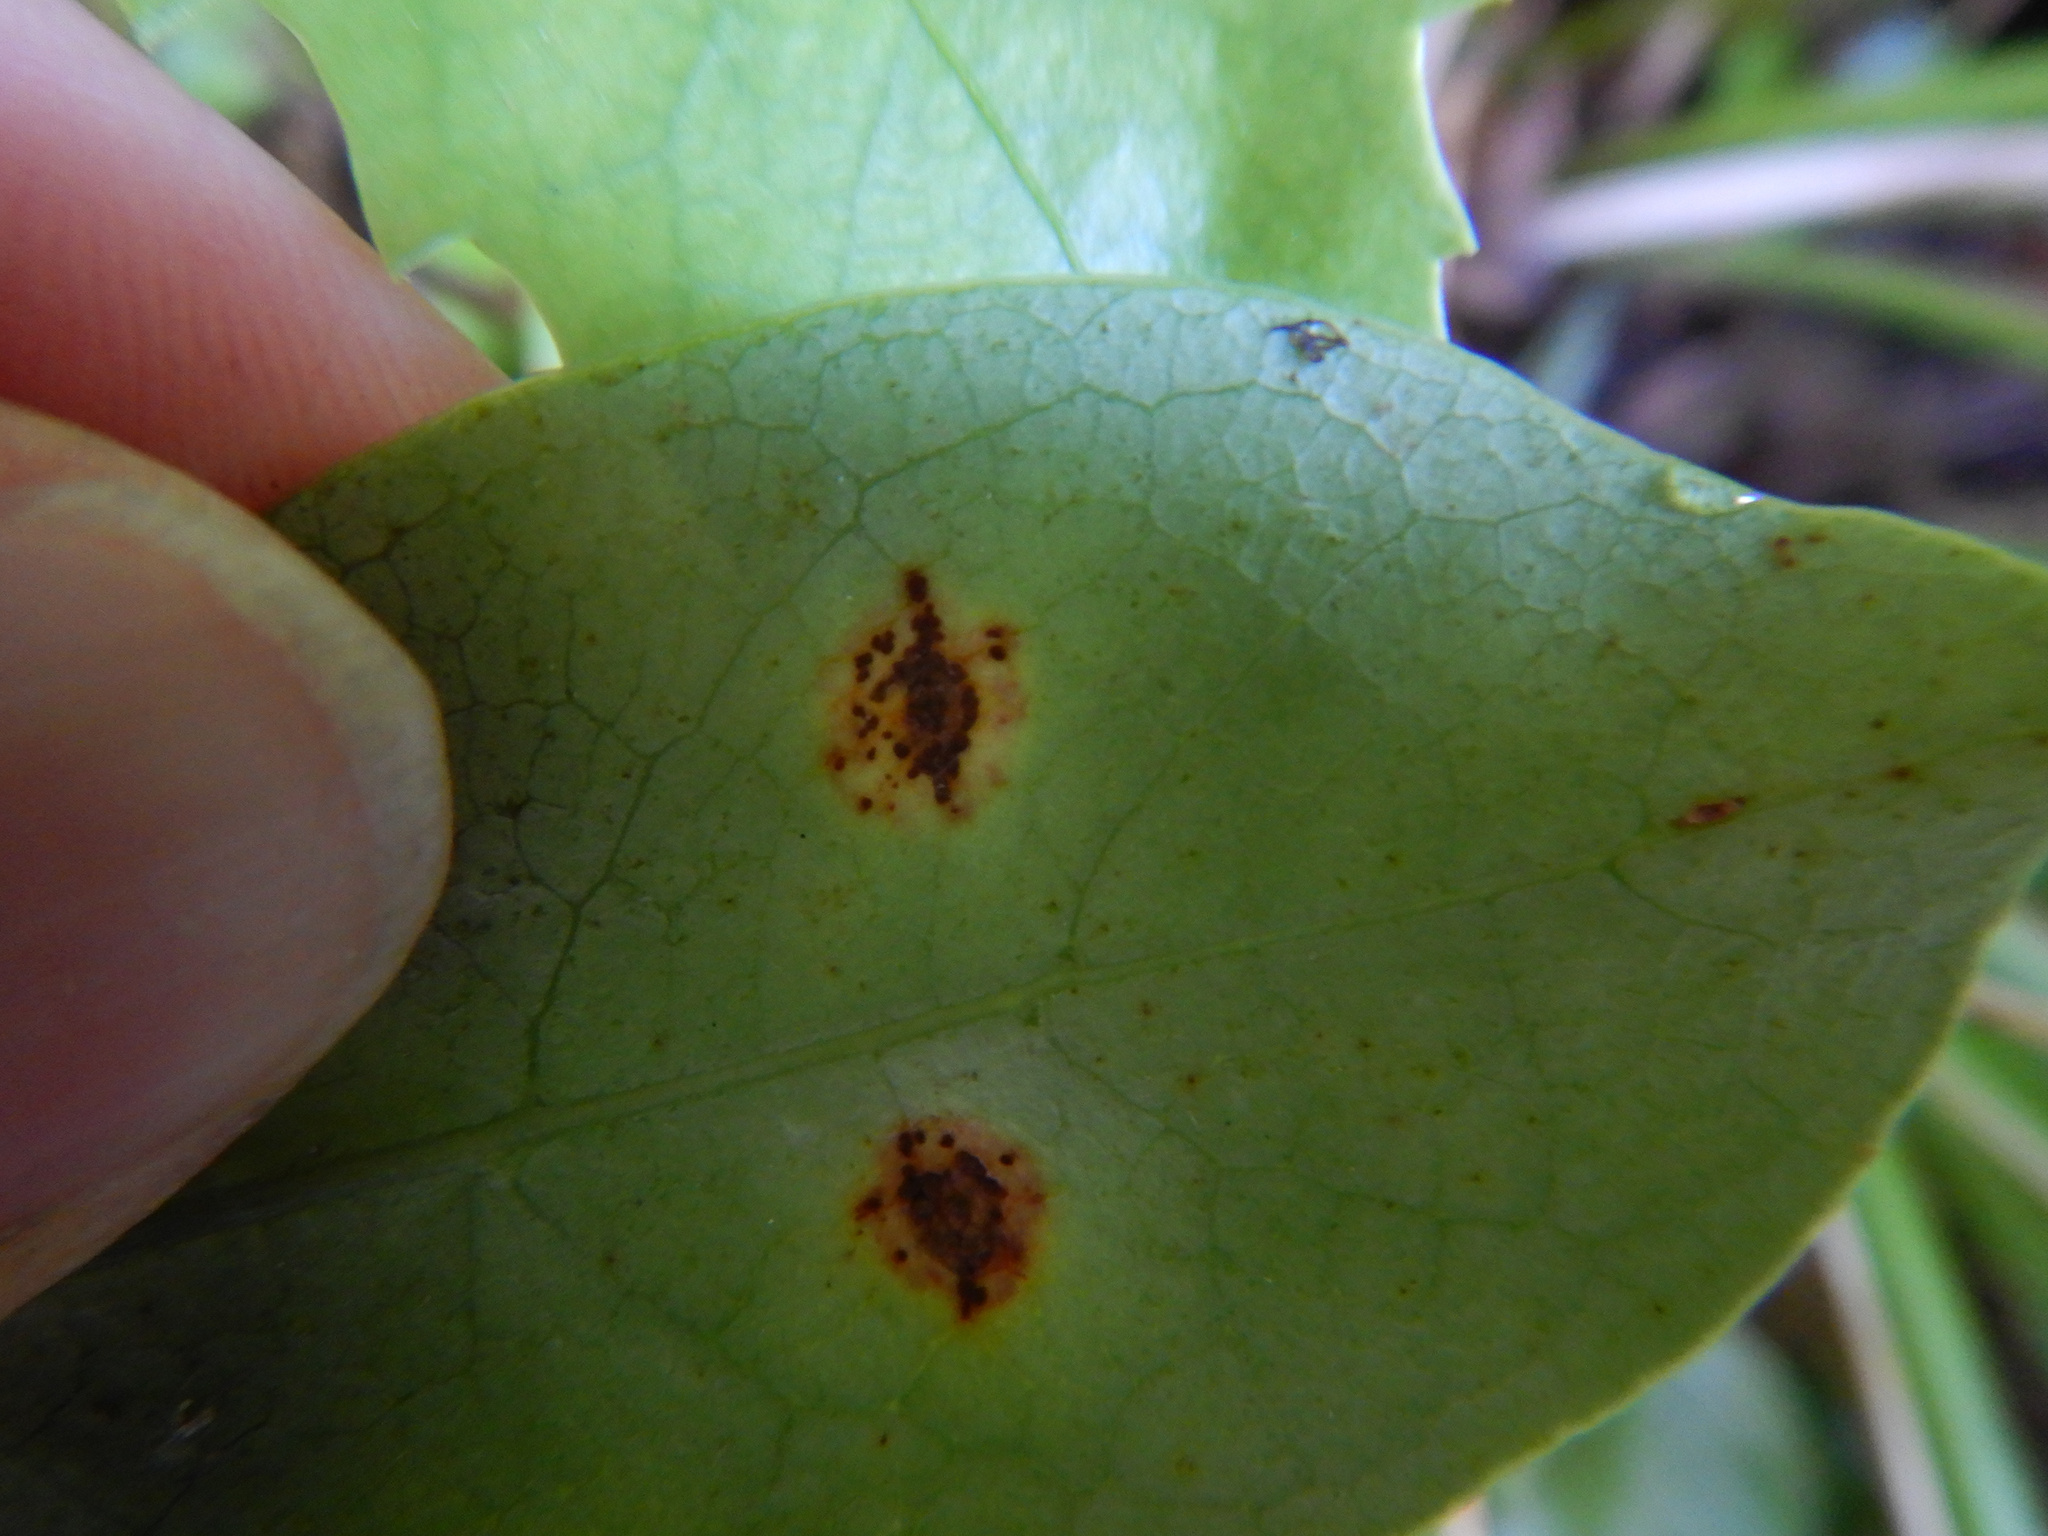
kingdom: Fungi
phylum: Basidiomycota
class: Pucciniomycetes
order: Pucciniales
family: Pucciniaceae
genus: Puccinia
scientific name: Puccinia coprosmae
